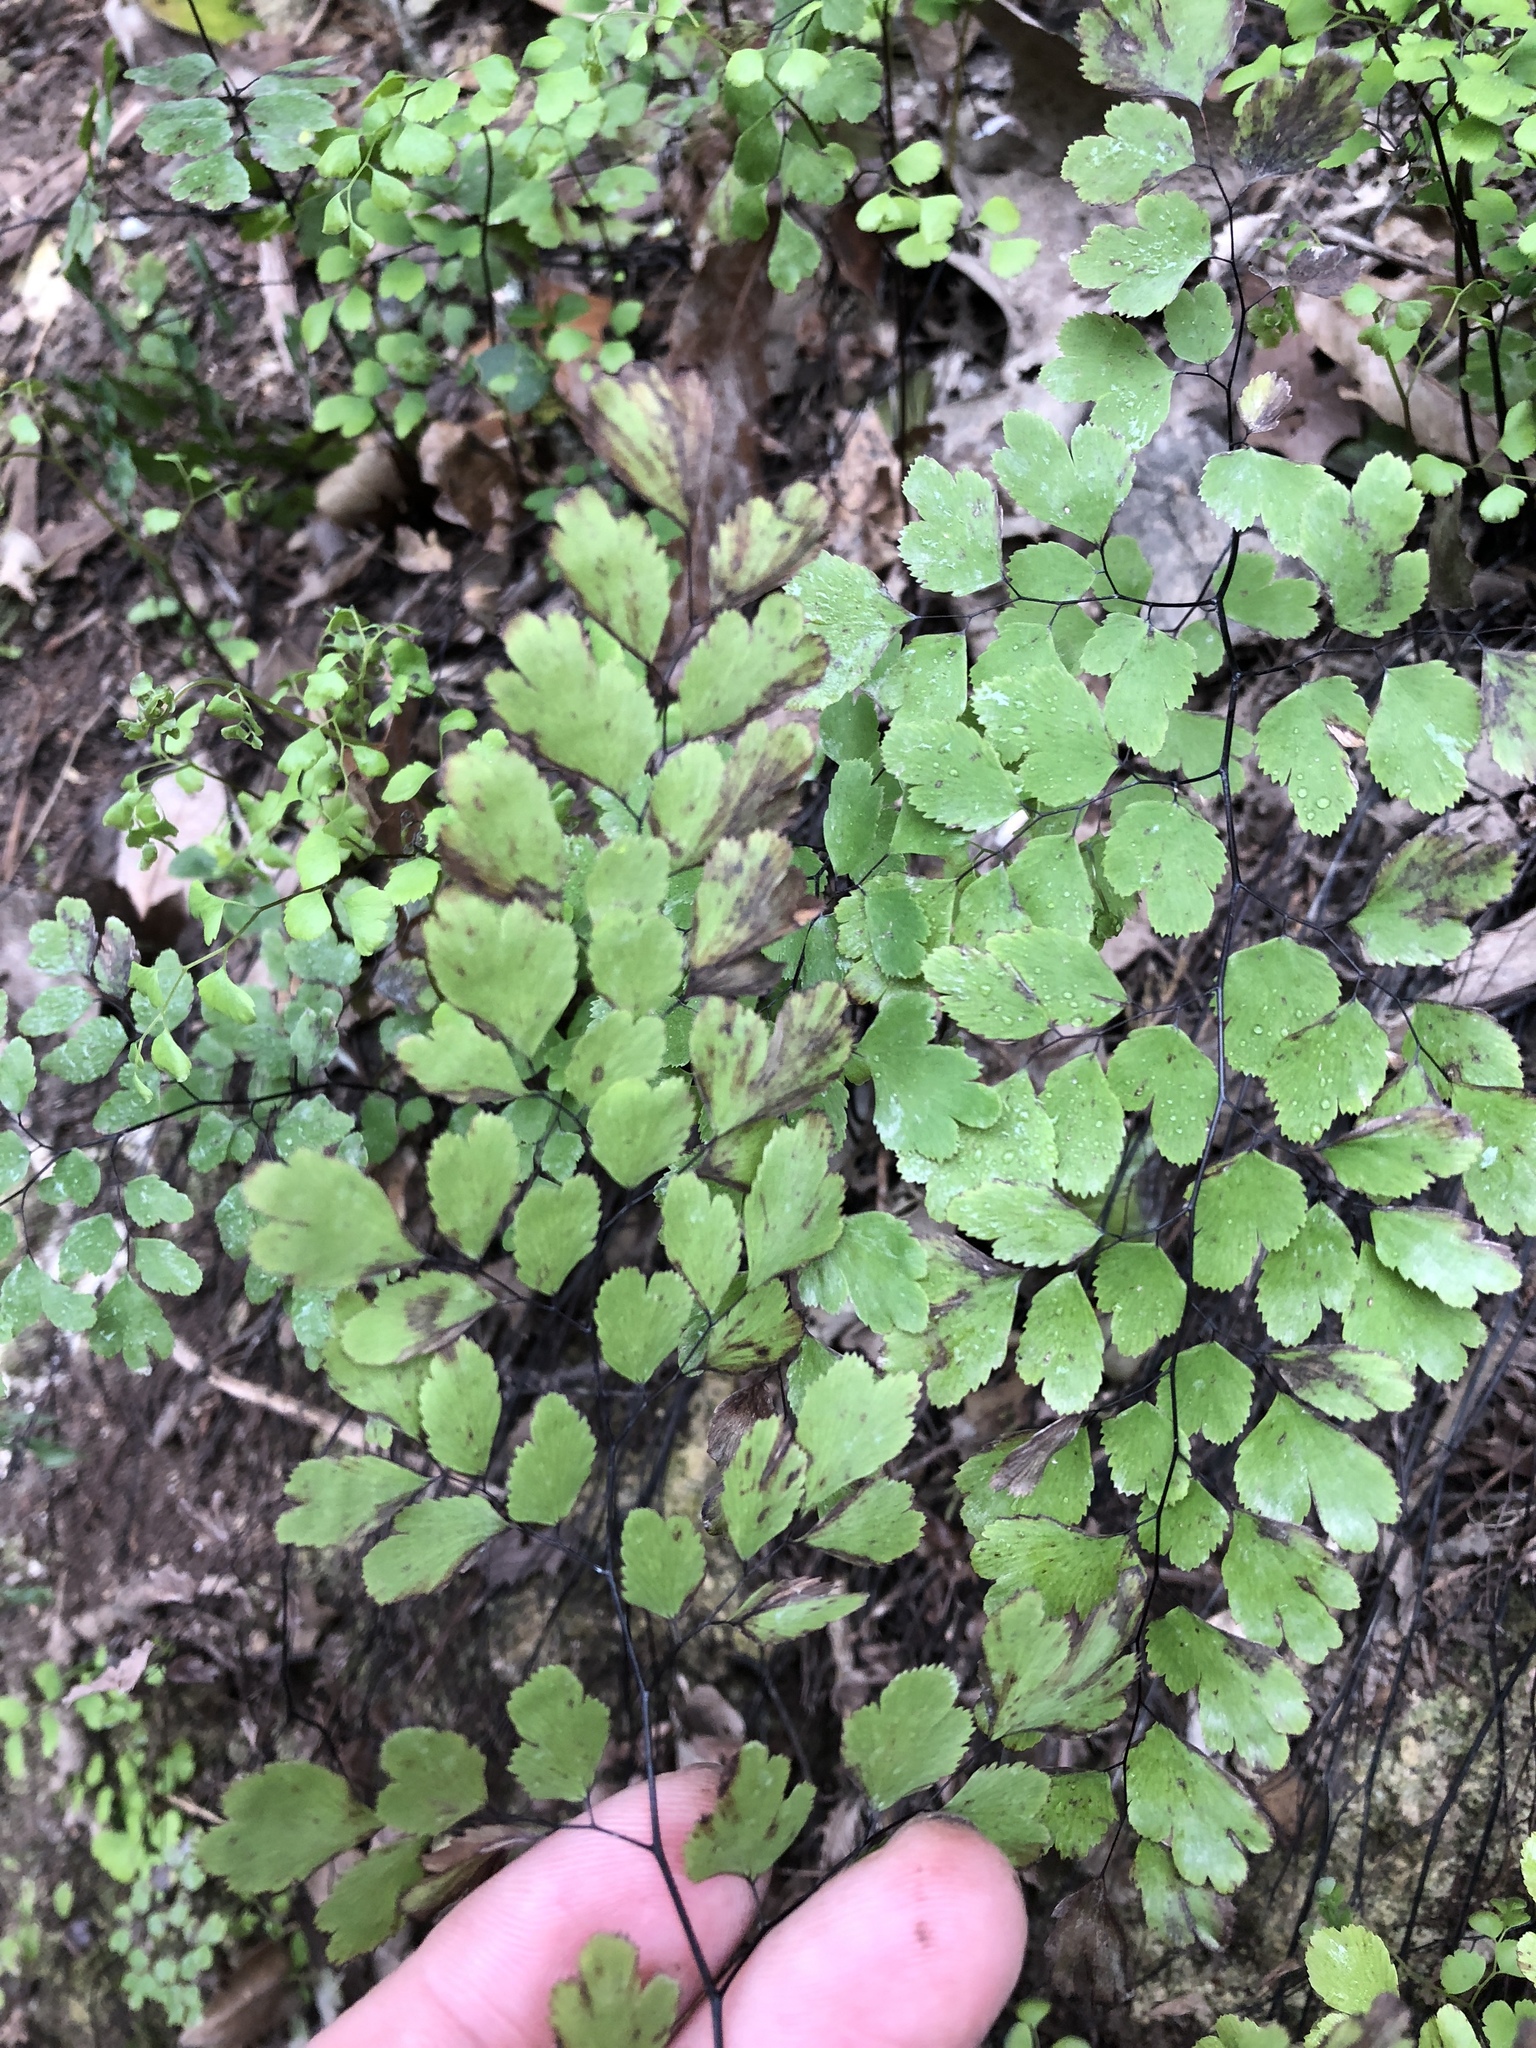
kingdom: Plantae
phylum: Tracheophyta
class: Polypodiopsida
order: Polypodiales
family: Pteridaceae
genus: Adiantum
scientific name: Adiantum capillus-veneris
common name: Maidenhair fern
